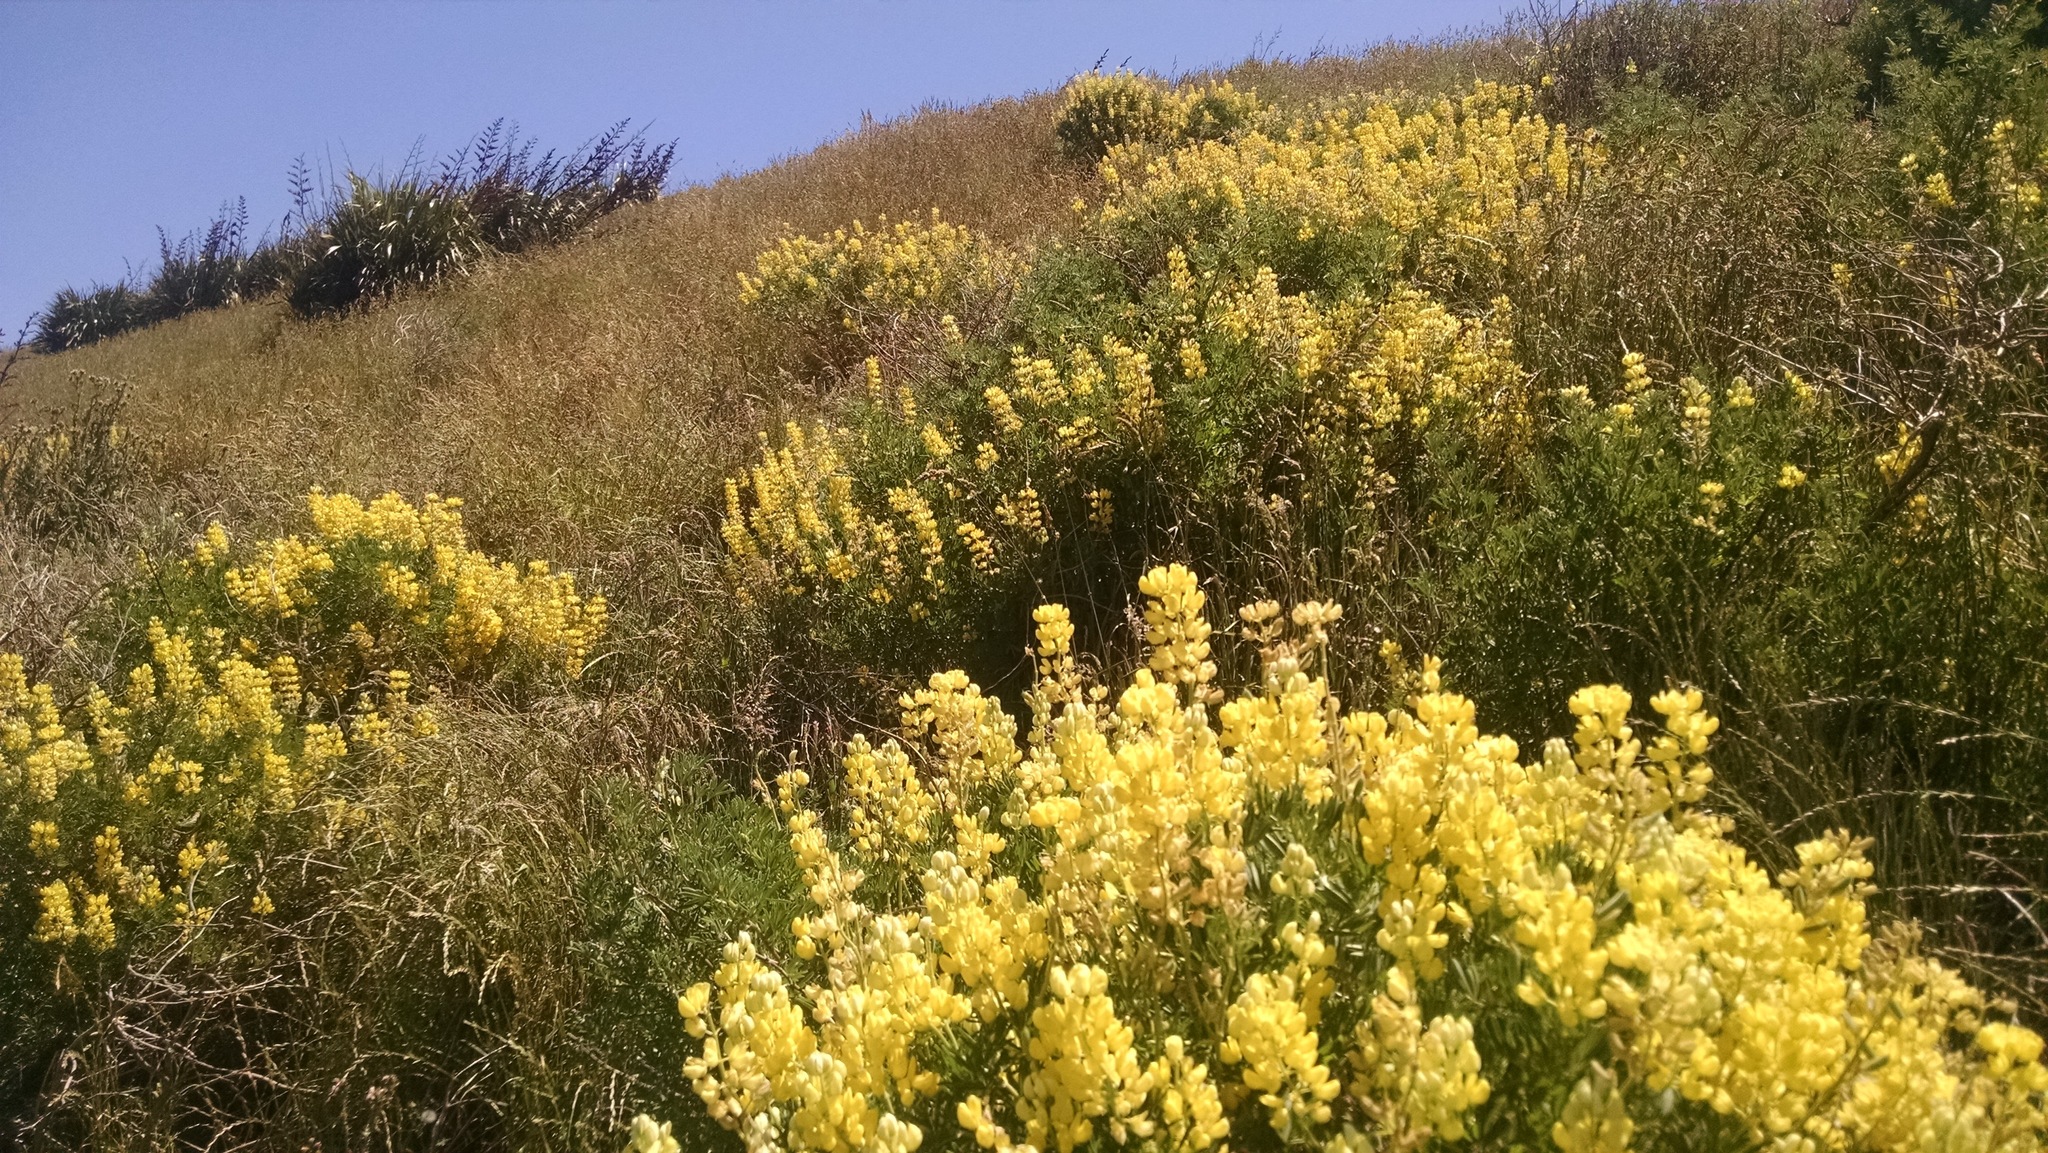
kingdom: Plantae
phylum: Tracheophyta
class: Magnoliopsida
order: Fabales
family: Fabaceae
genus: Lupinus
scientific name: Lupinus arboreus
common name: Yellow bush lupine
